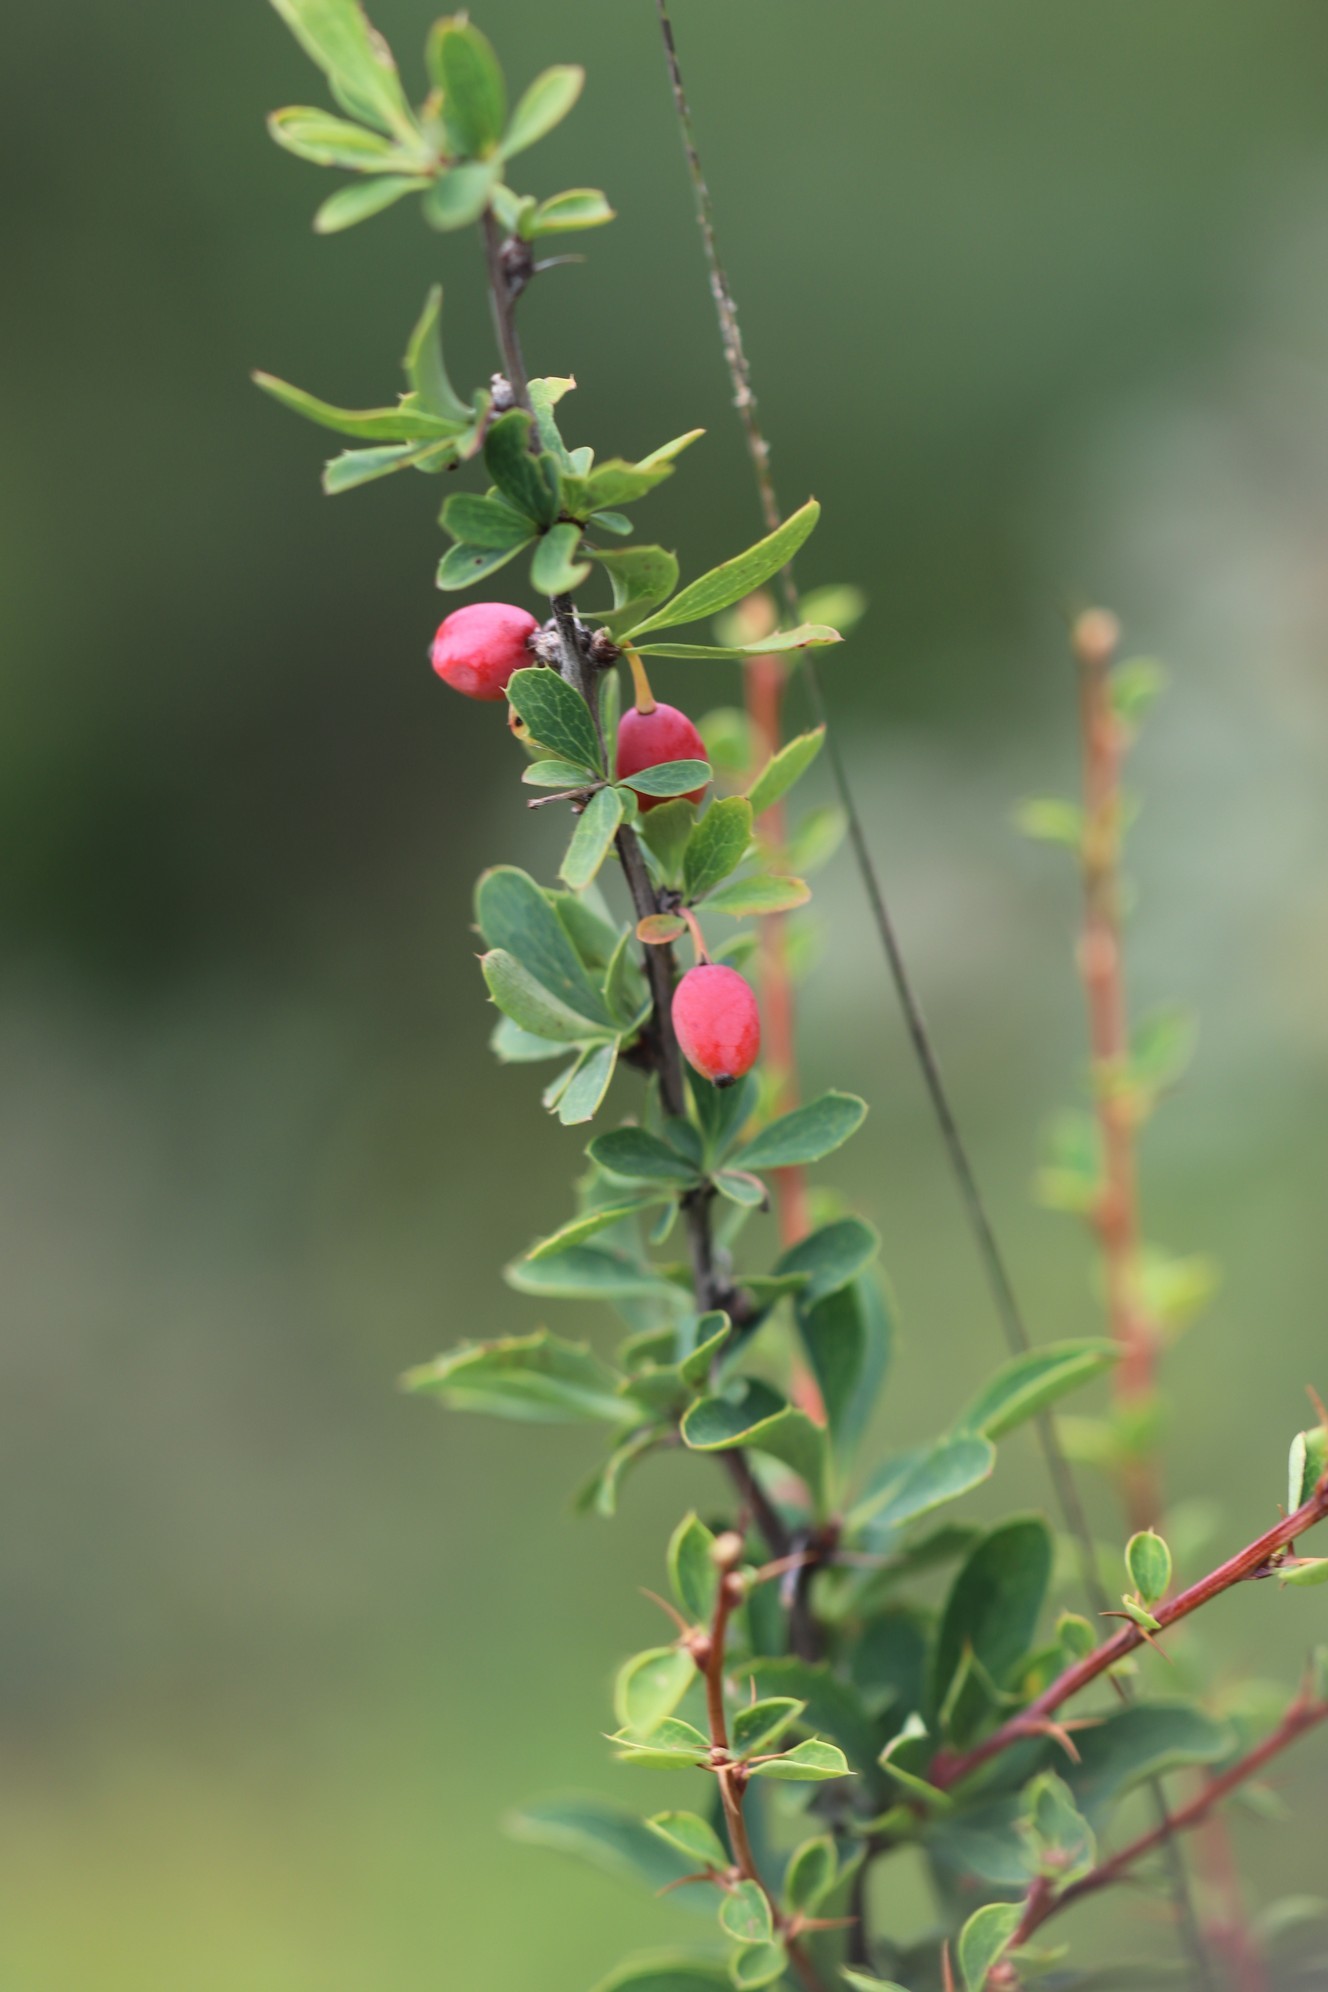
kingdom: Plantae
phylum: Tracheophyta
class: Magnoliopsida
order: Ranunculales
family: Berberidaceae
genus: Berberis
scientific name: Berberis sibirica
